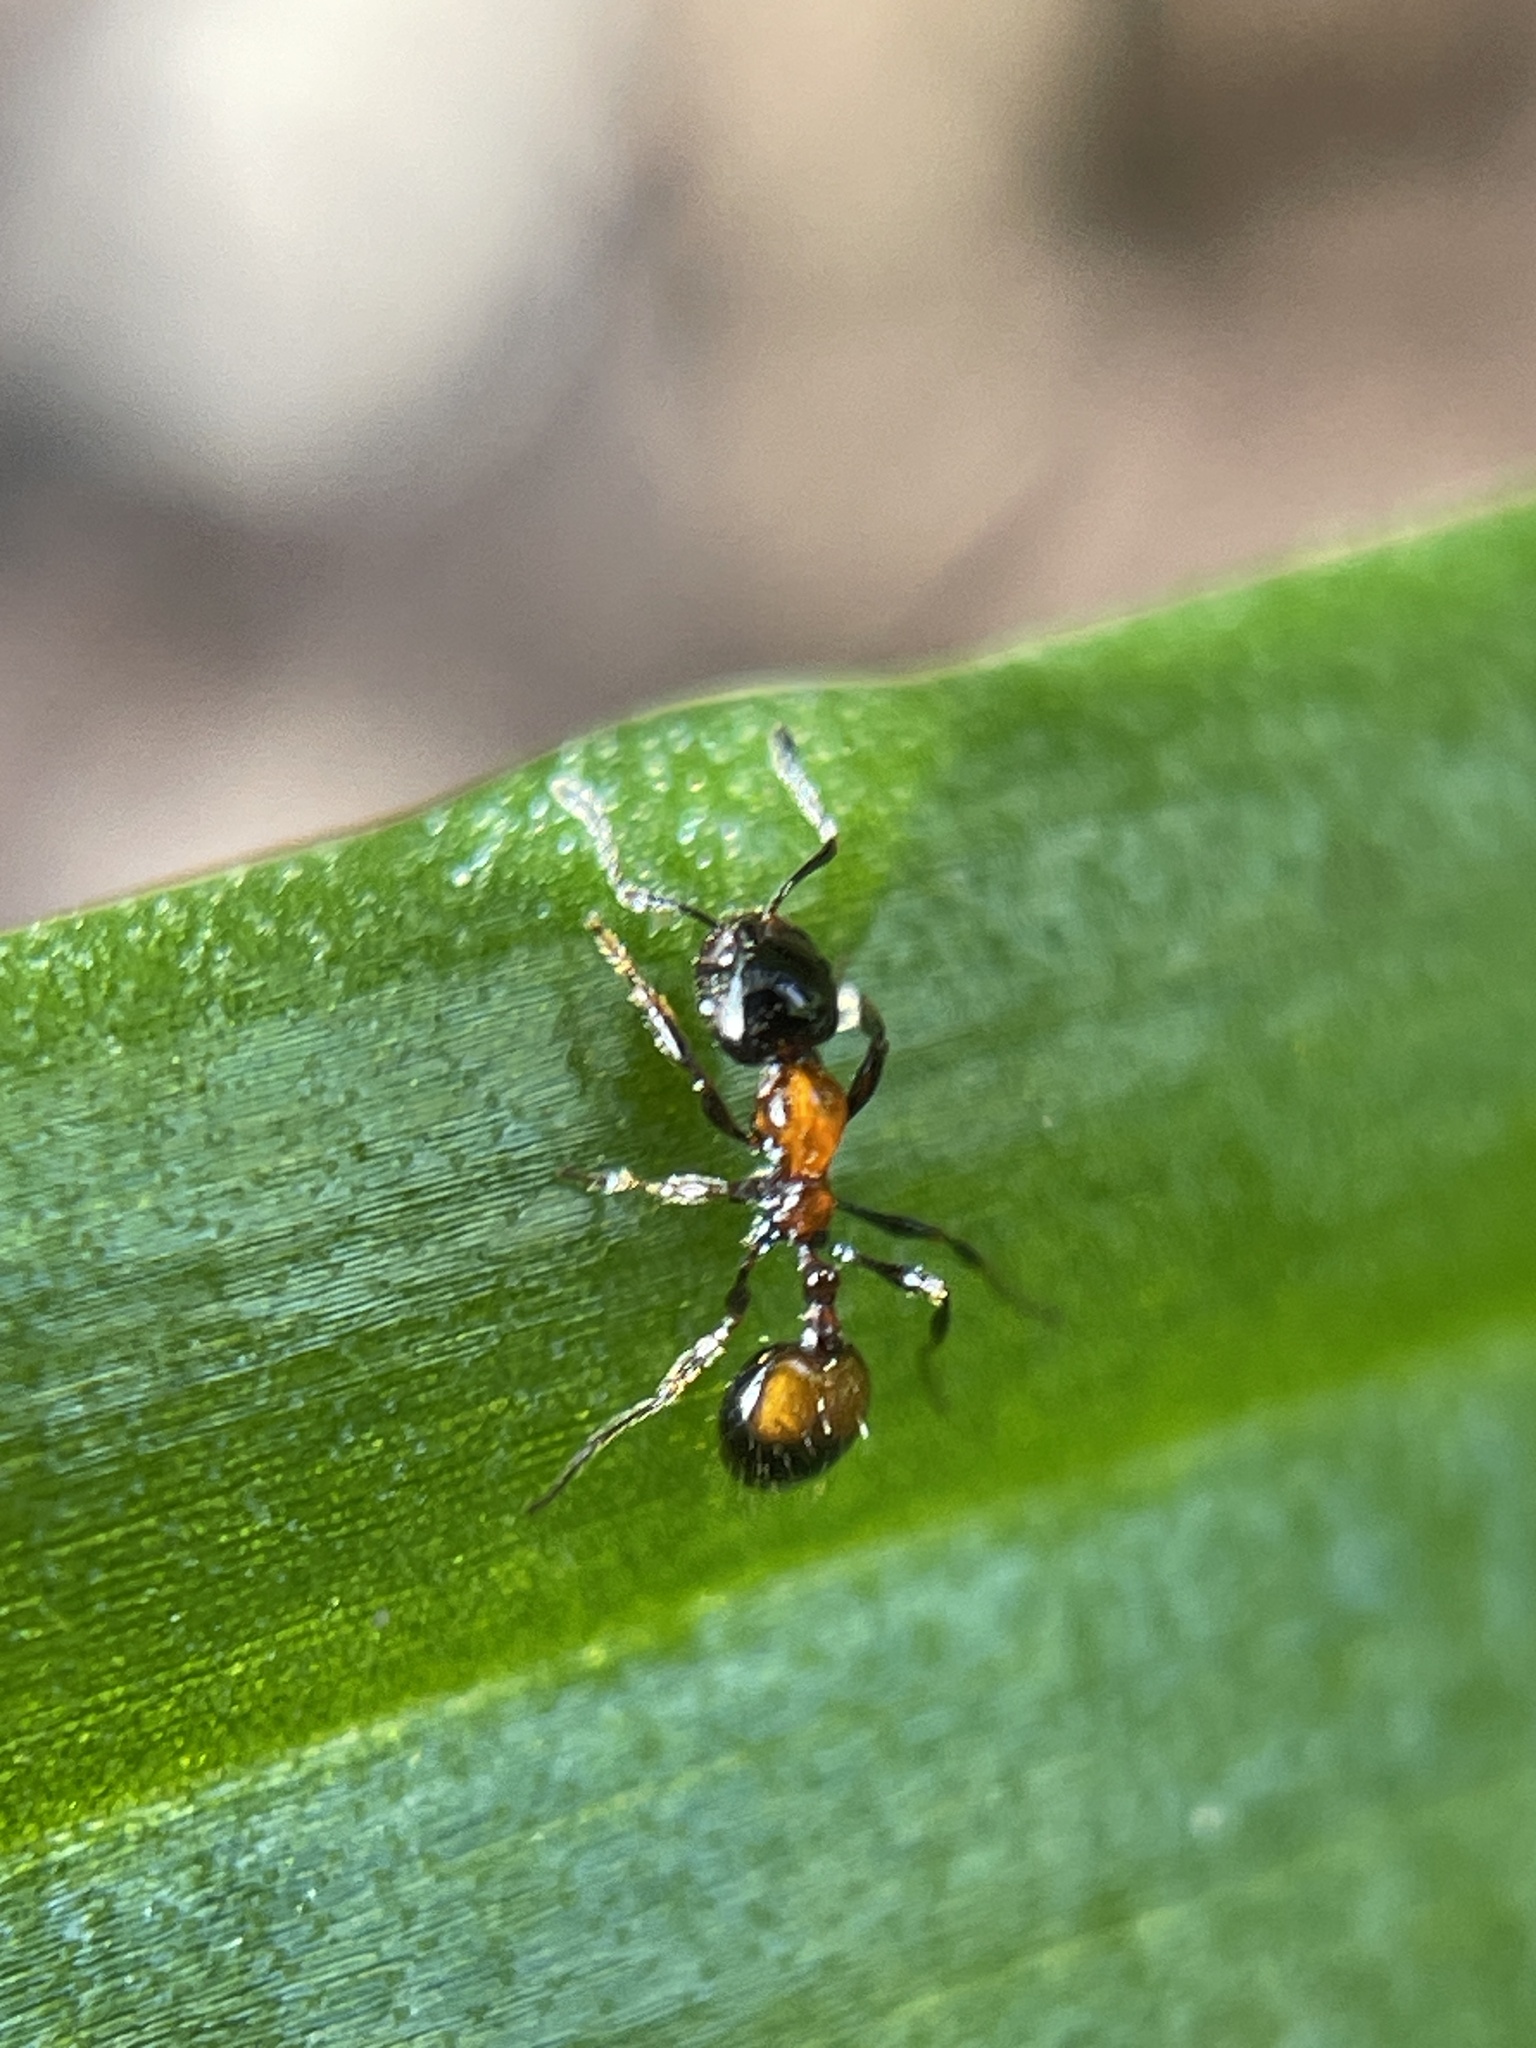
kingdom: Animalia
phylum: Arthropoda
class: Insecta
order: Hymenoptera
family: Formicidae
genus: Chelaner
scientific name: Chelaner
